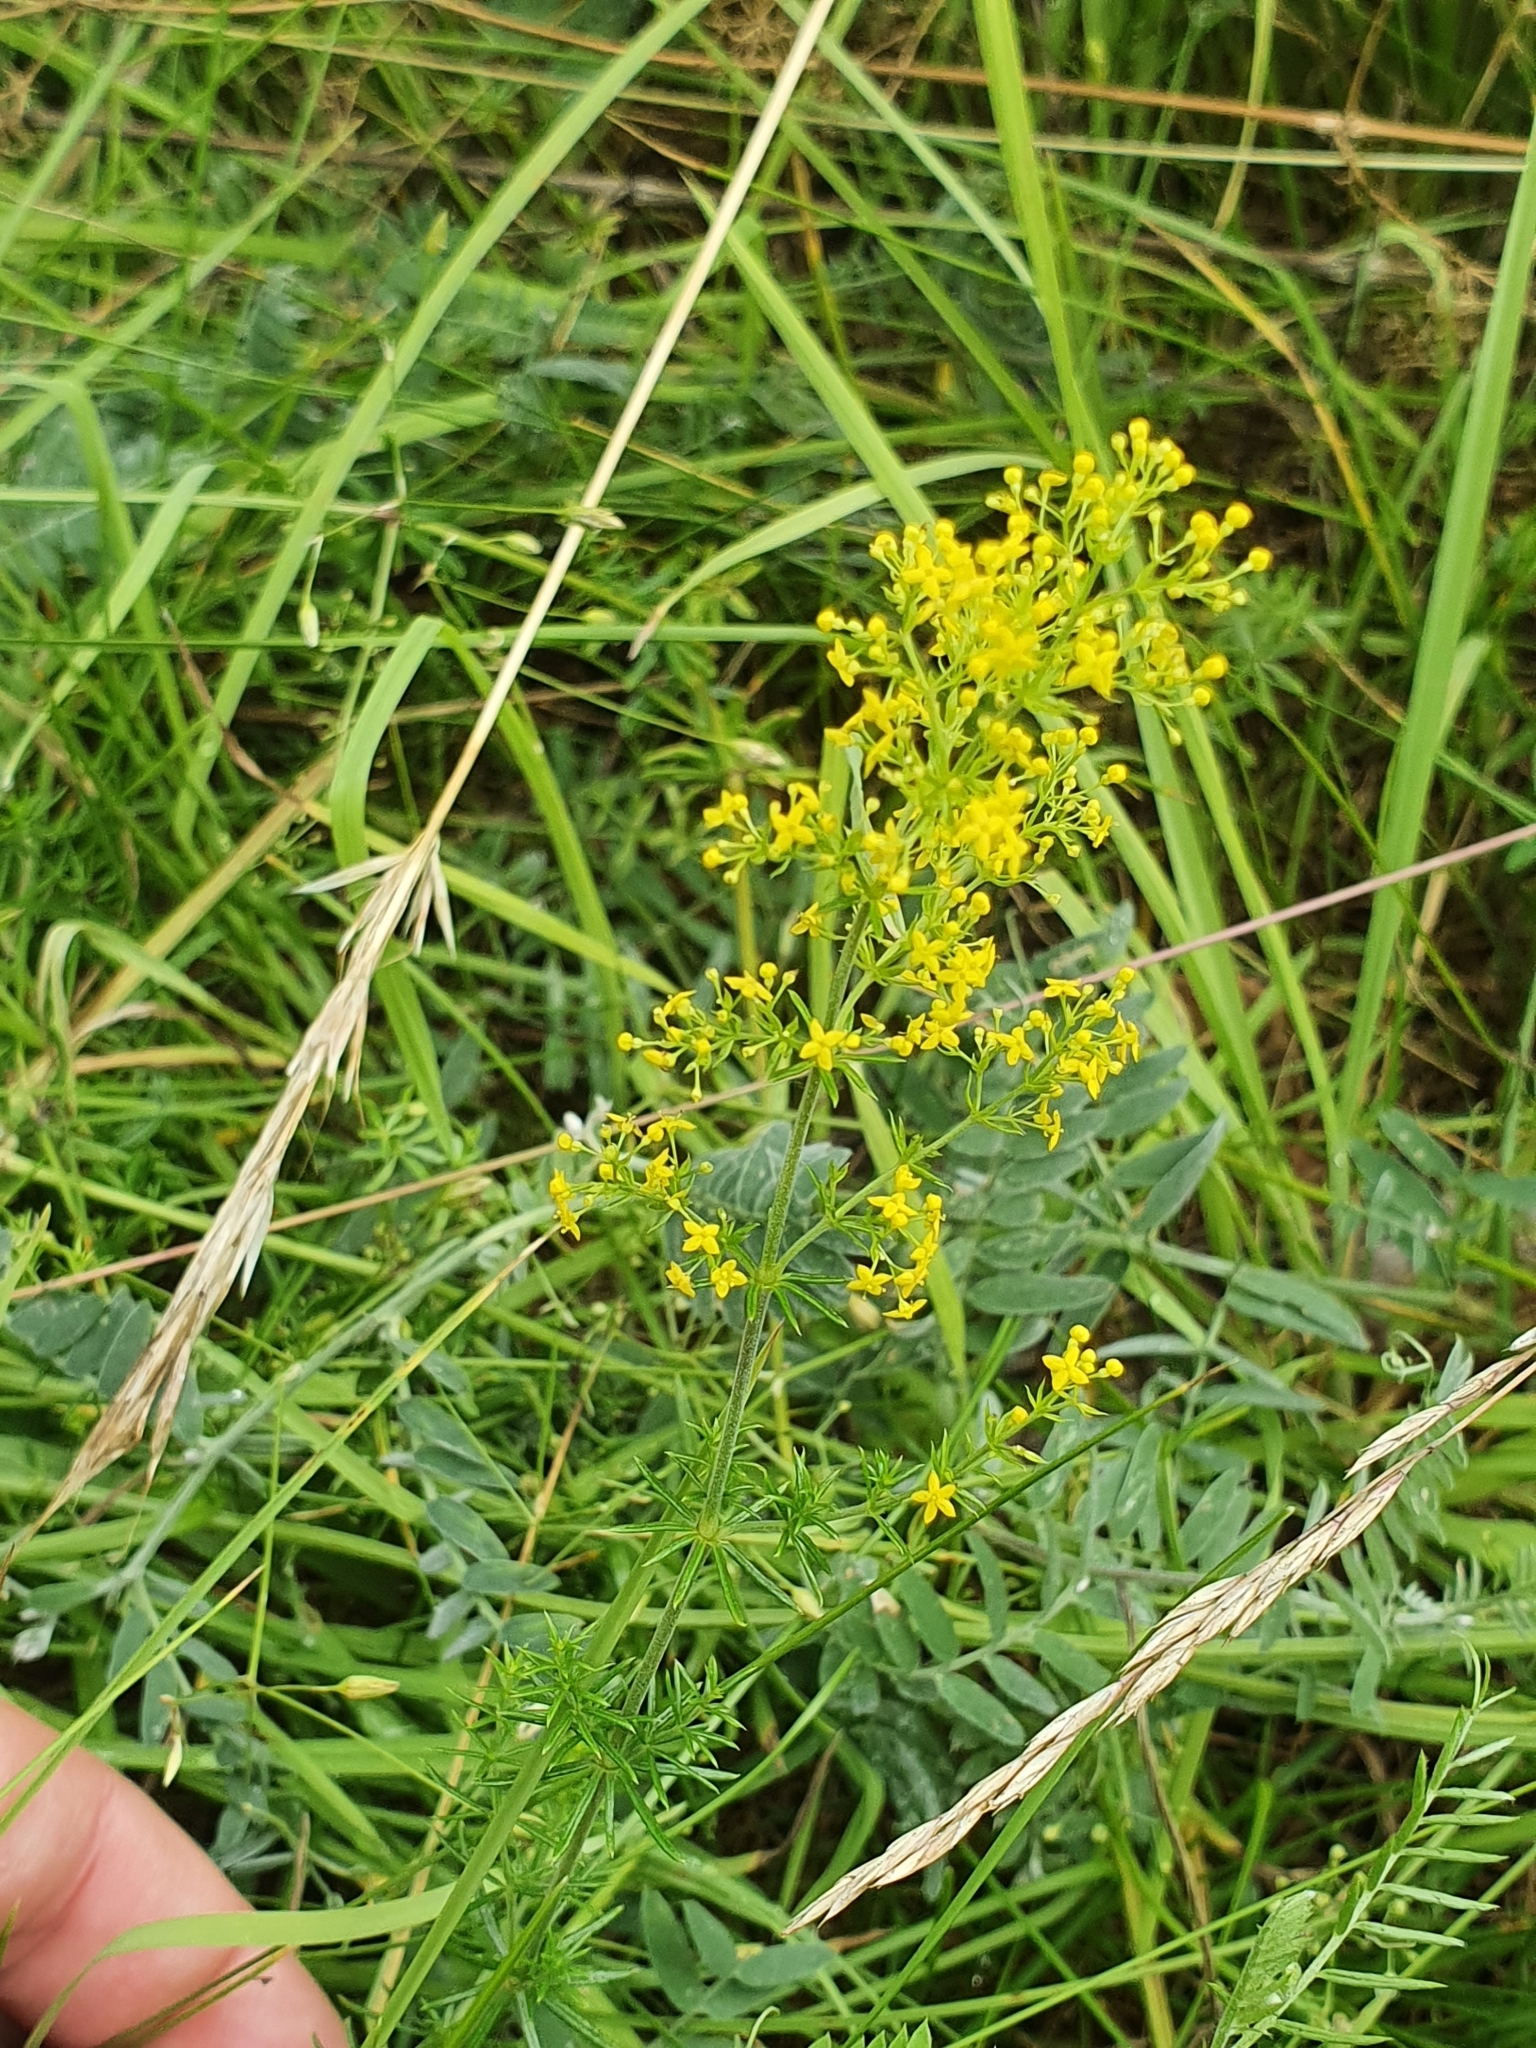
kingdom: Plantae
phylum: Tracheophyta
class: Magnoliopsida
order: Gentianales
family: Rubiaceae
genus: Galium
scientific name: Galium verum
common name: Lady's bedstraw
